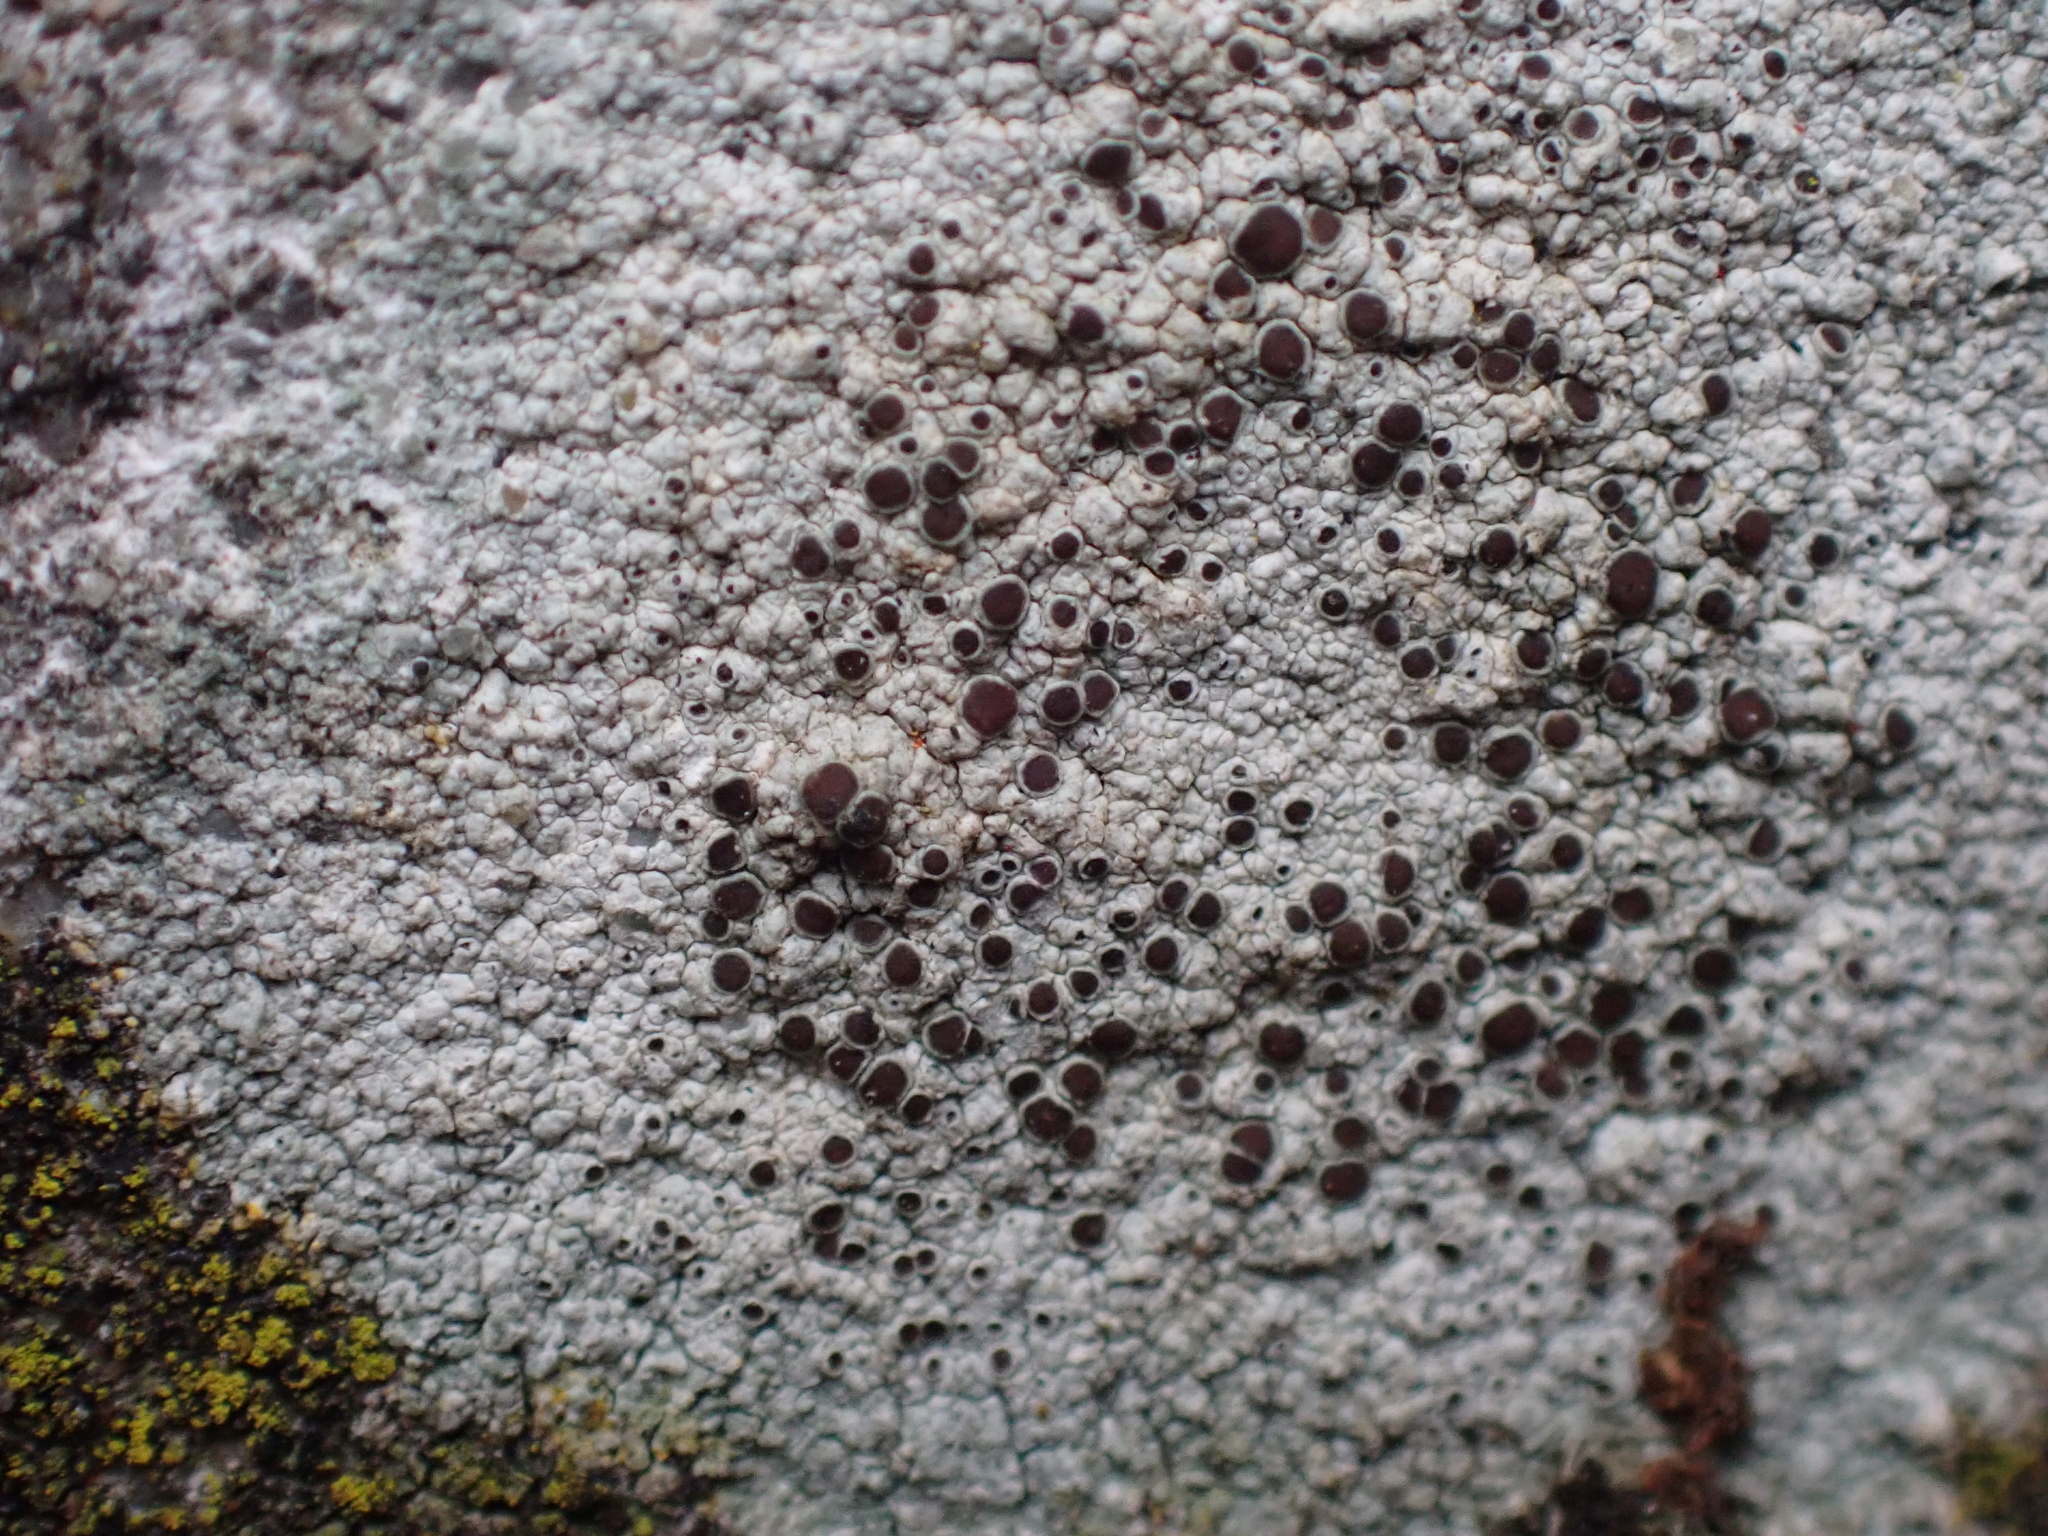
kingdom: Fungi
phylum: Ascomycota
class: Lecanoromycetes
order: Lecanorales
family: Lecanoraceae
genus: Lecanora
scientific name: Lecanora campestris
